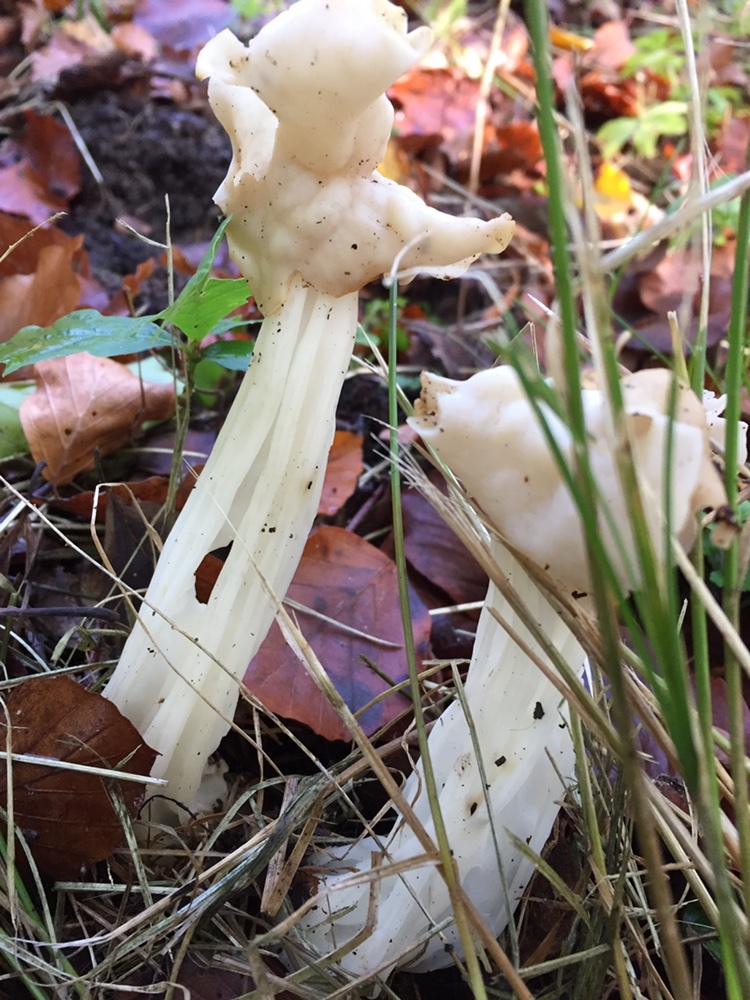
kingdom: Fungi
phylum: Ascomycota
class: Pezizomycetes
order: Pezizales
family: Helvellaceae
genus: Helvella
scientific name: Helvella crispa
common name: White saddle
